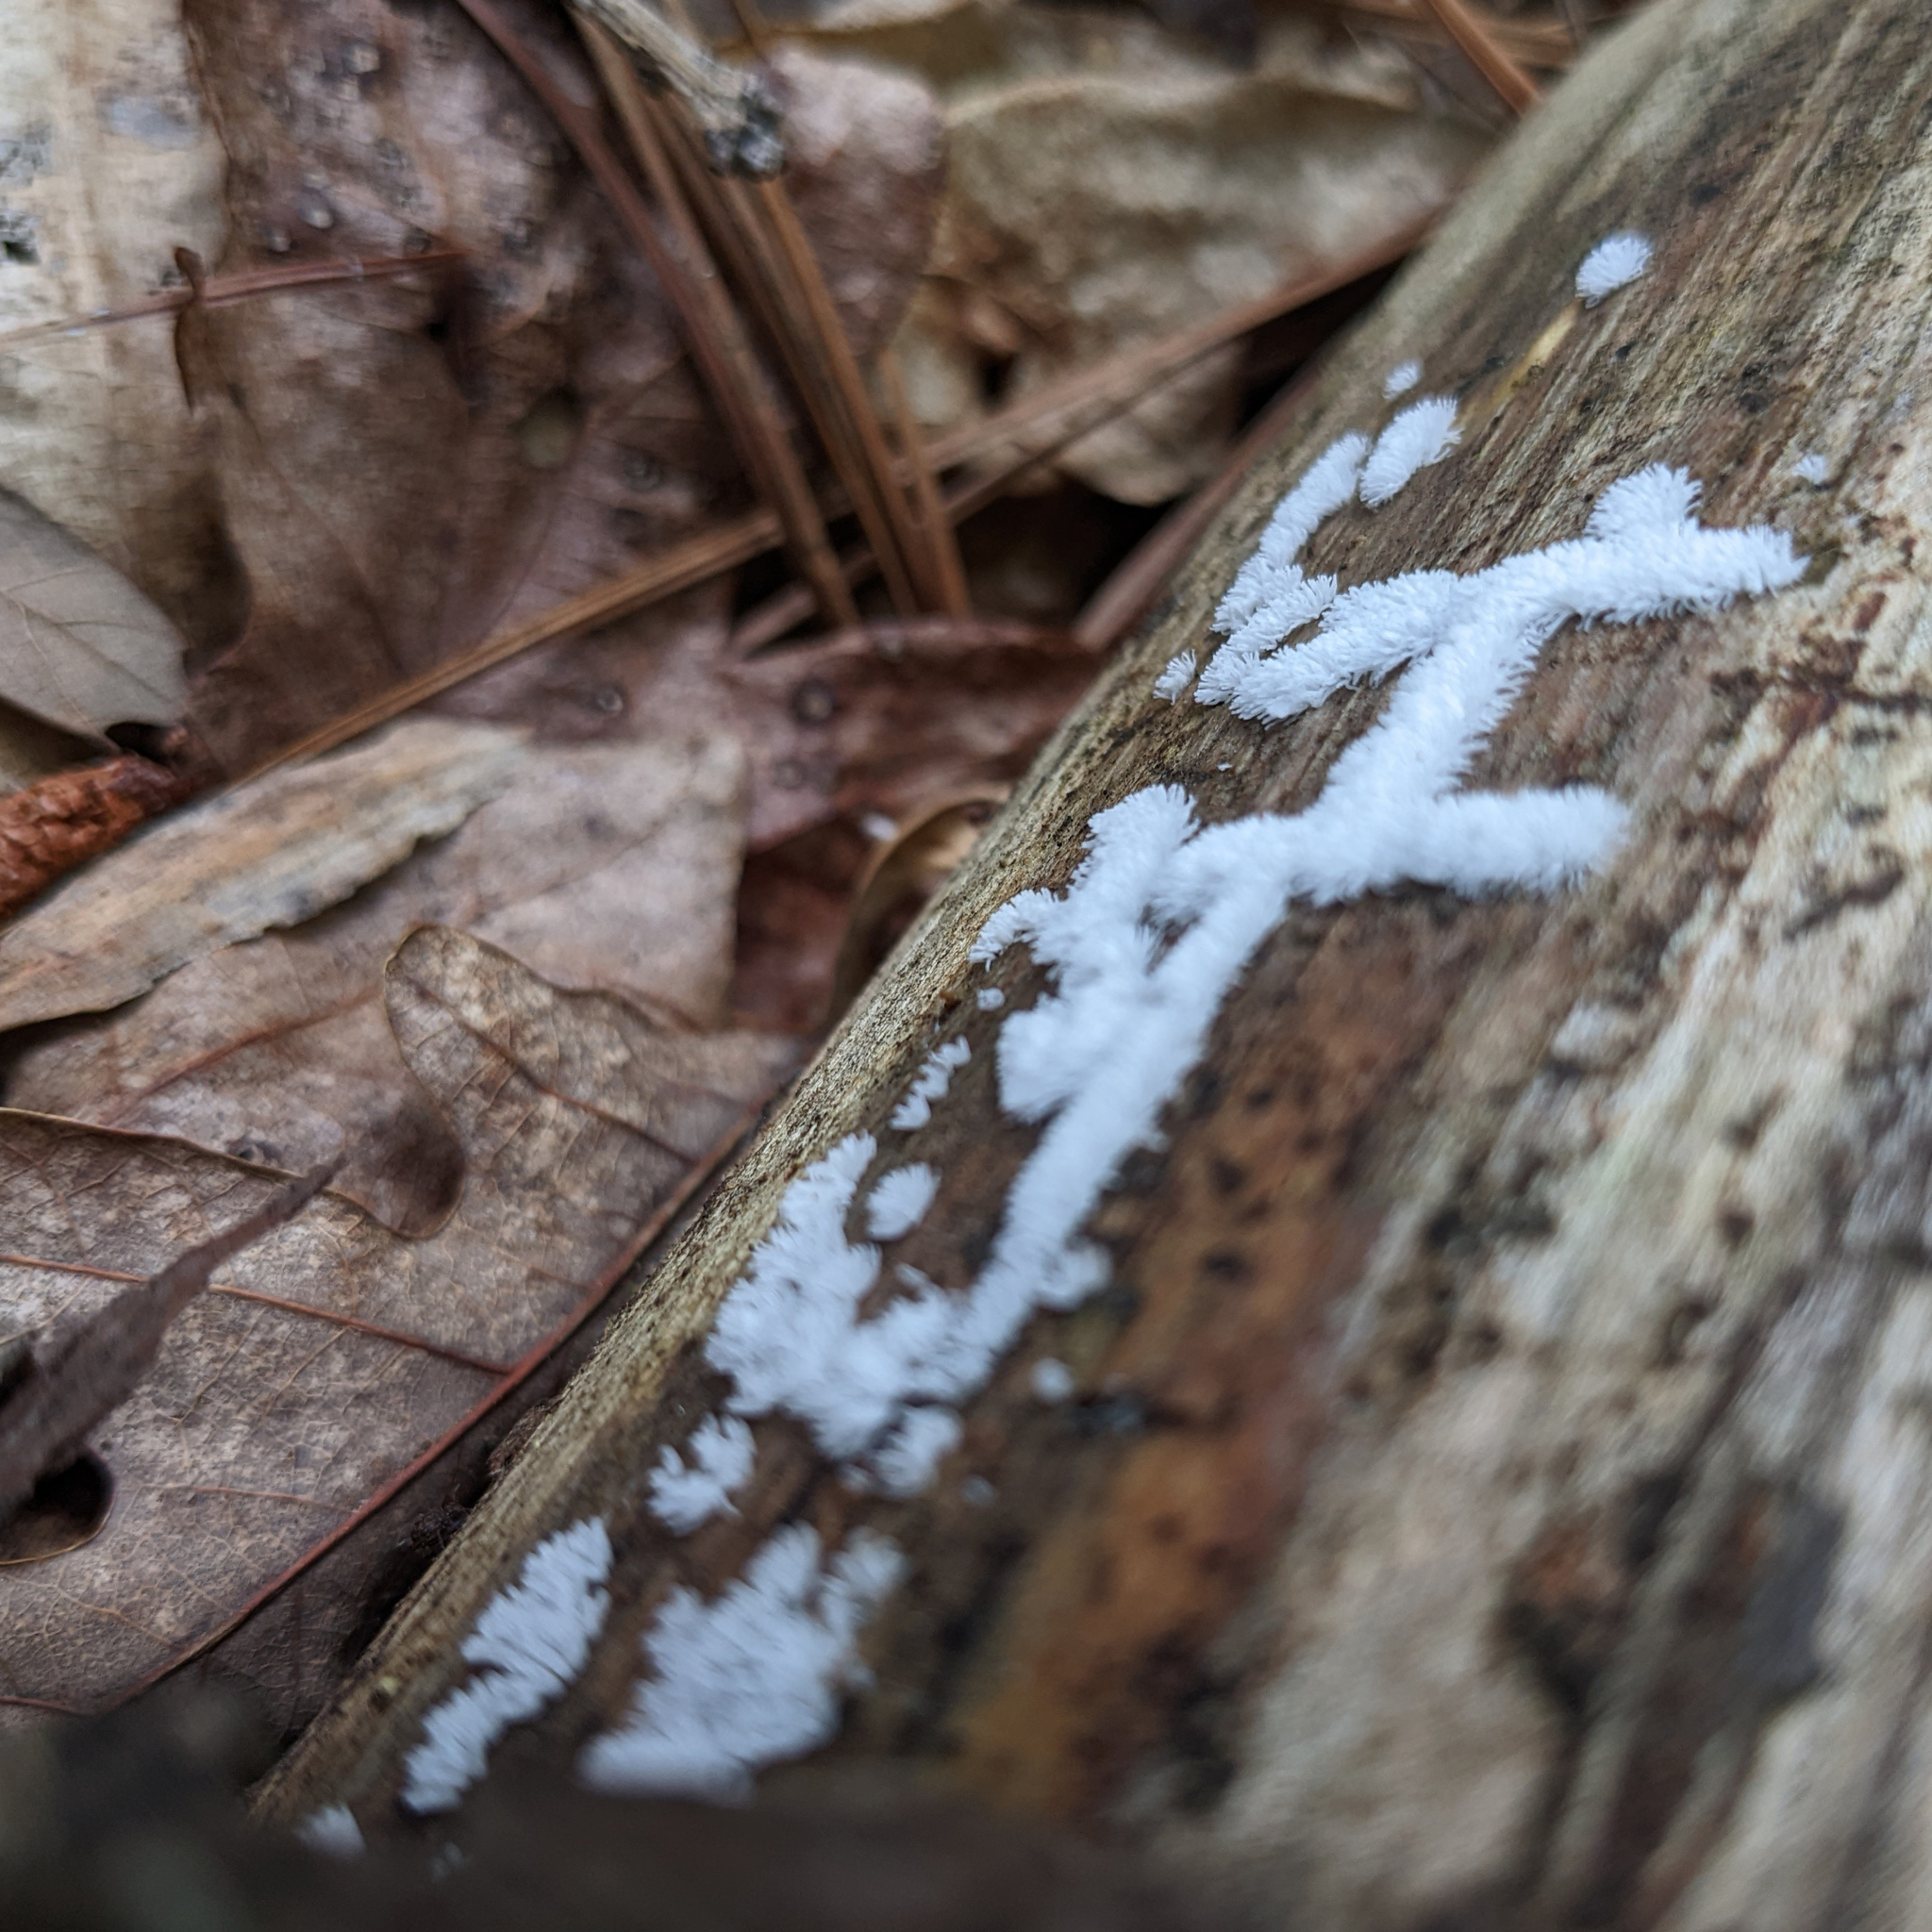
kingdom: Protozoa
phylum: Mycetozoa
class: Protosteliomycetes
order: Ceratiomyxales
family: Ceratiomyxaceae
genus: Ceratiomyxa
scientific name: Ceratiomyxa fruticulosa
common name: Honeycomb coral slime mold
